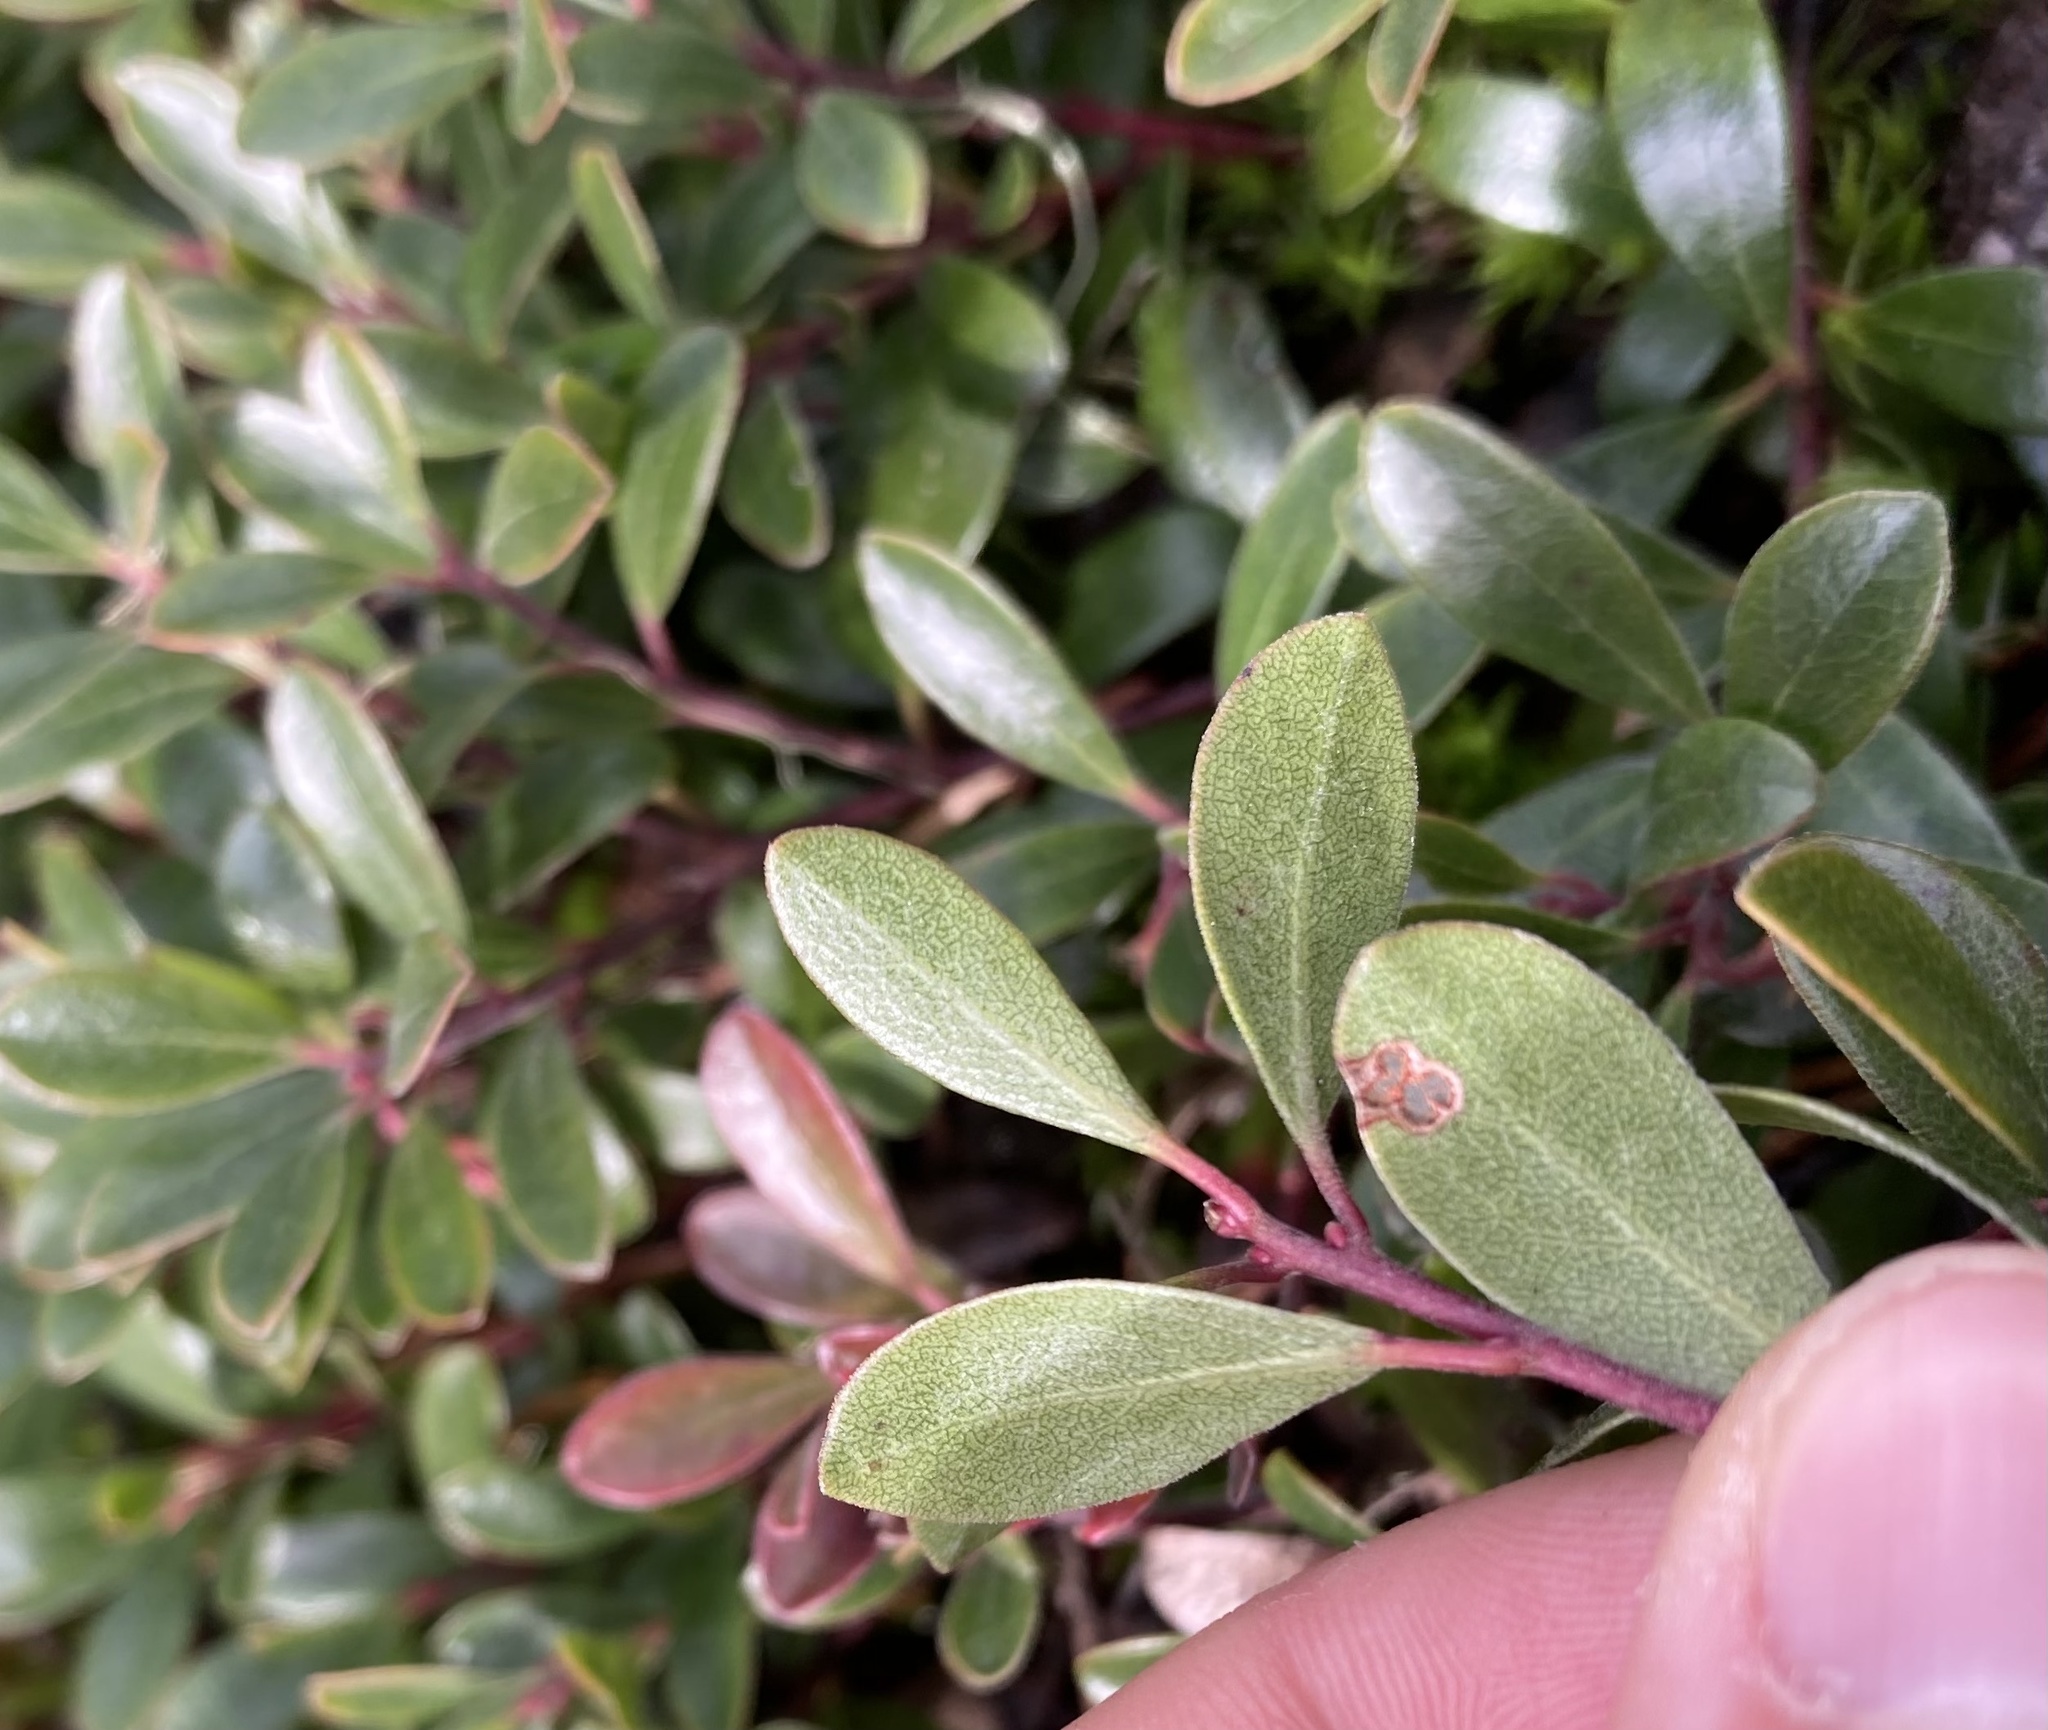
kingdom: Plantae
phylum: Tracheophyta
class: Magnoliopsida
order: Ericales
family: Ericaceae
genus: Arctostaphylos
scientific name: Arctostaphylos uva-ursi
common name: Bearberry
